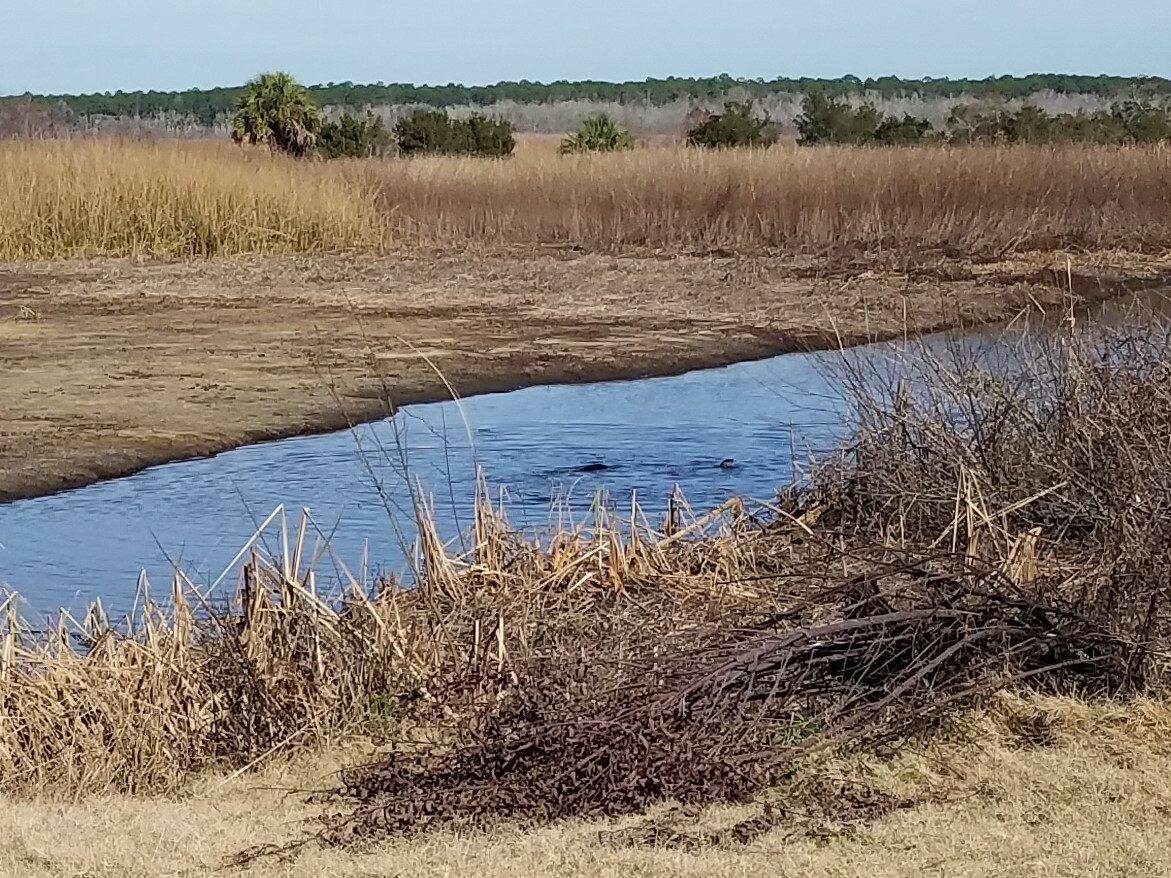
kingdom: Animalia
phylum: Chordata
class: Mammalia
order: Carnivora
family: Mustelidae
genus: Lontra
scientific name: Lontra canadensis
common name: North american river otter
